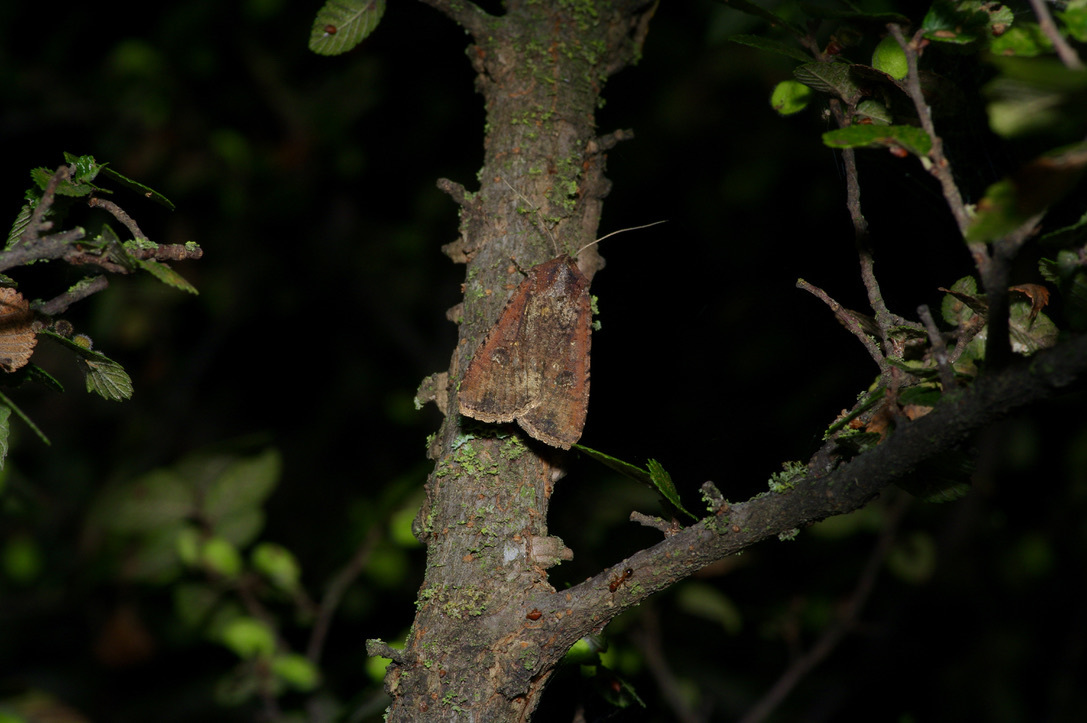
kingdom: Animalia
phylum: Arthropoda
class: Insecta
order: Lepidoptera
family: Noctuidae
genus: Peridroma
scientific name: Peridroma saucia
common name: Pearly underwing
